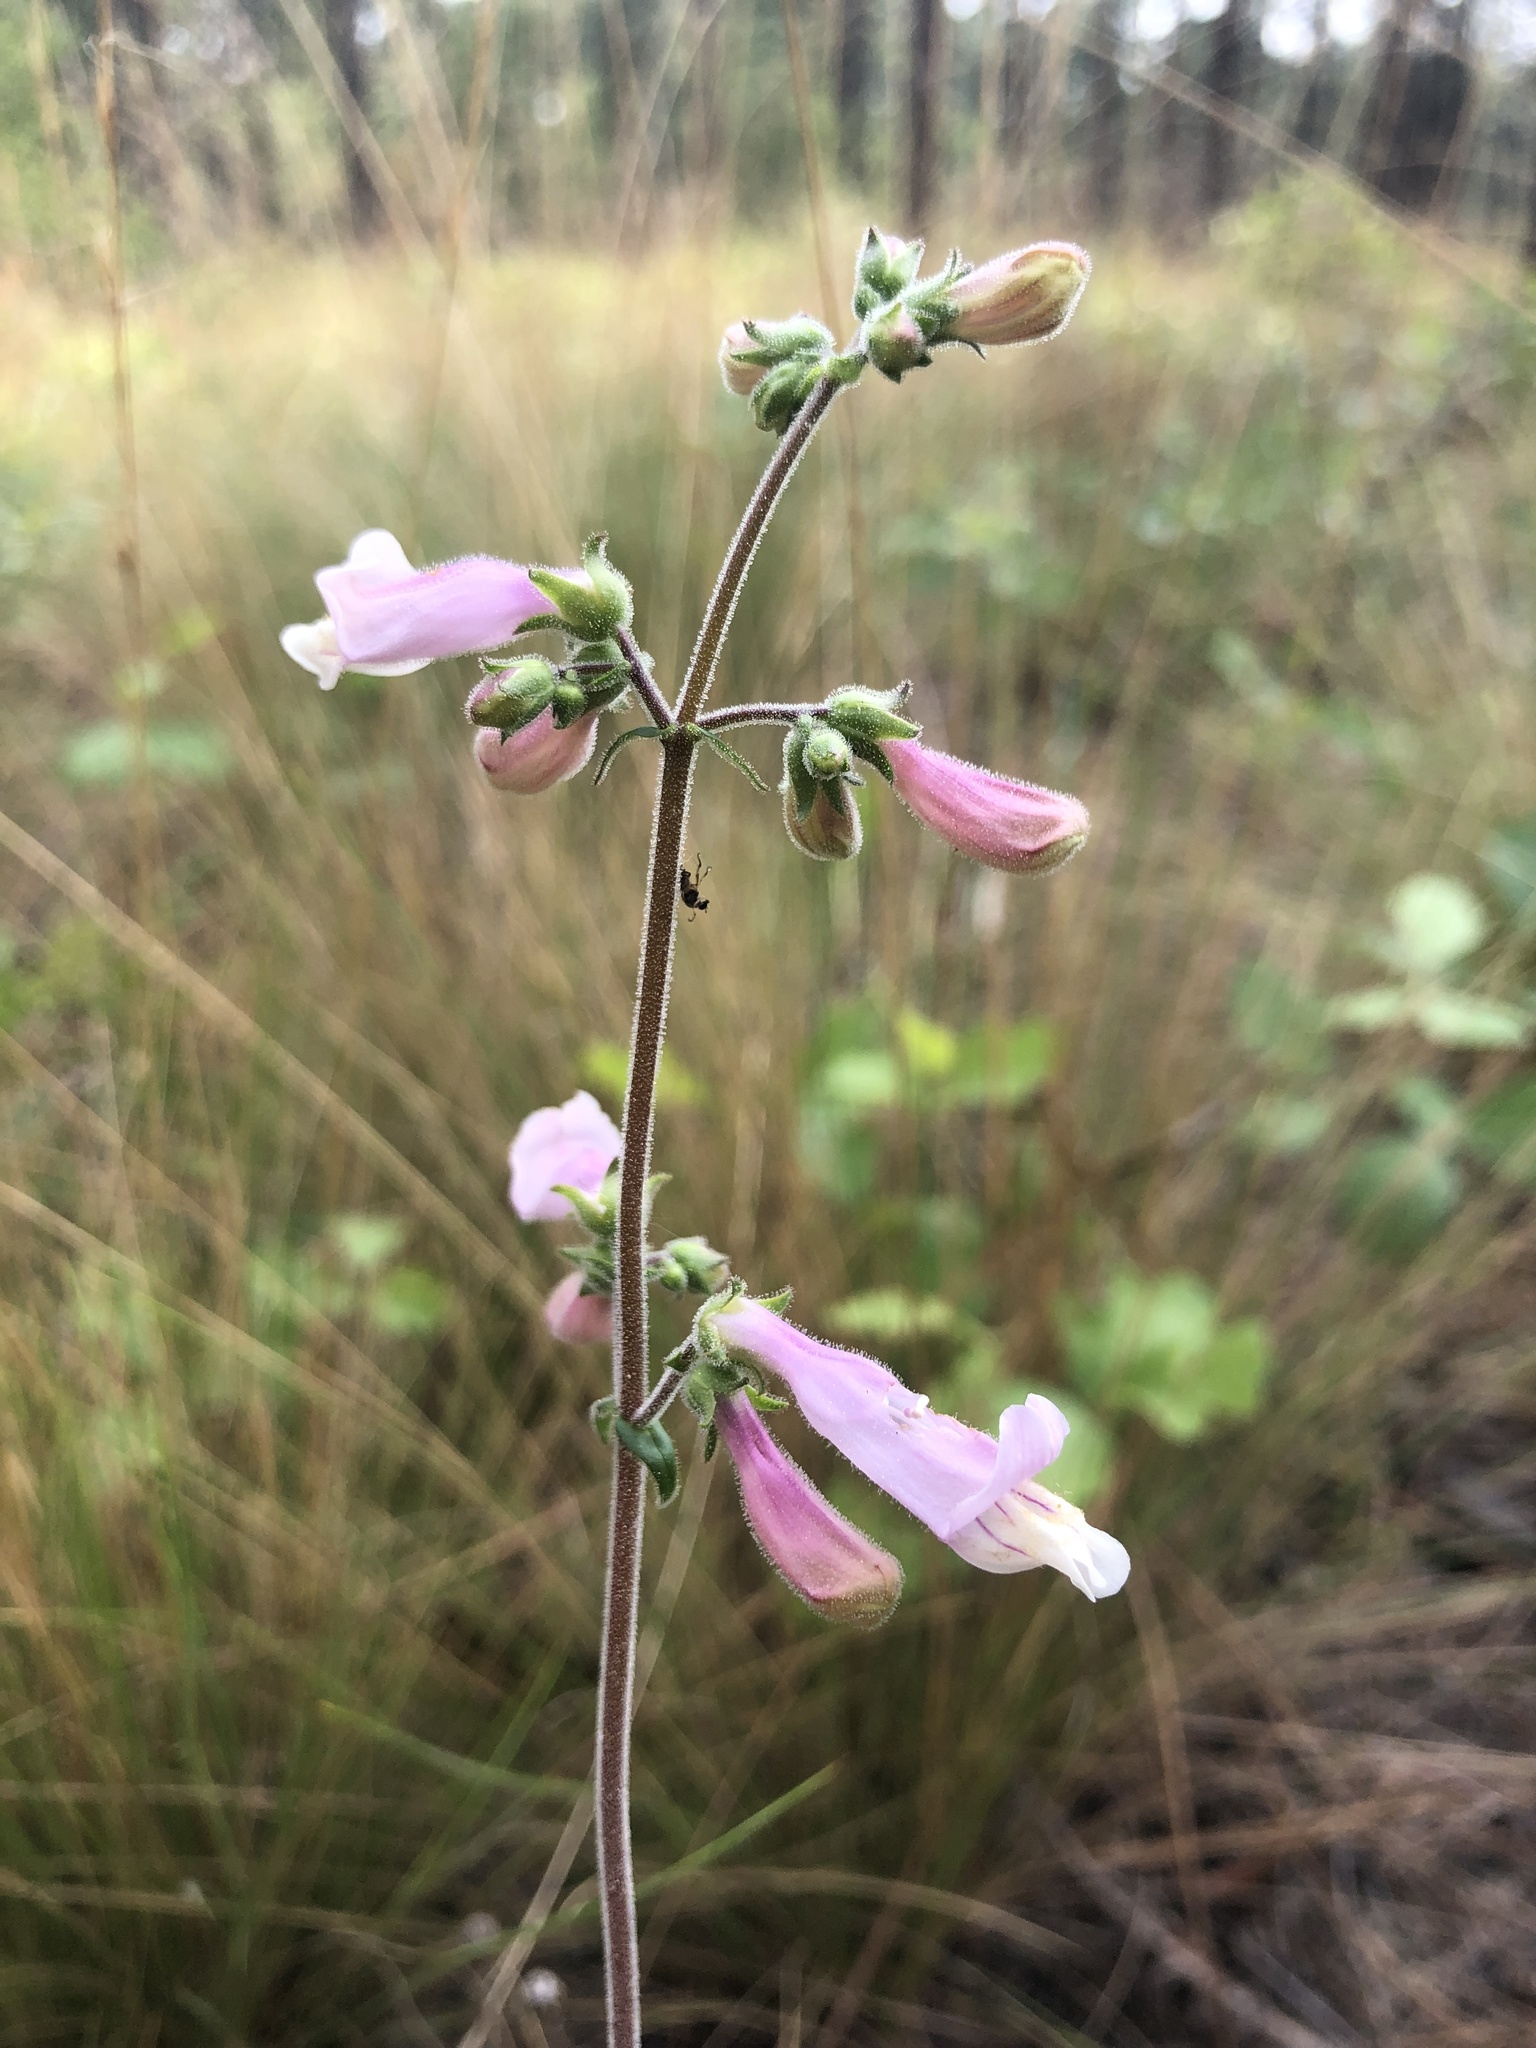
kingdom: Plantae
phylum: Tracheophyta
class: Magnoliopsida
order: Lamiales
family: Plantaginaceae
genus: Penstemon
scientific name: Penstemon australis
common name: Southeastern beardtongue
